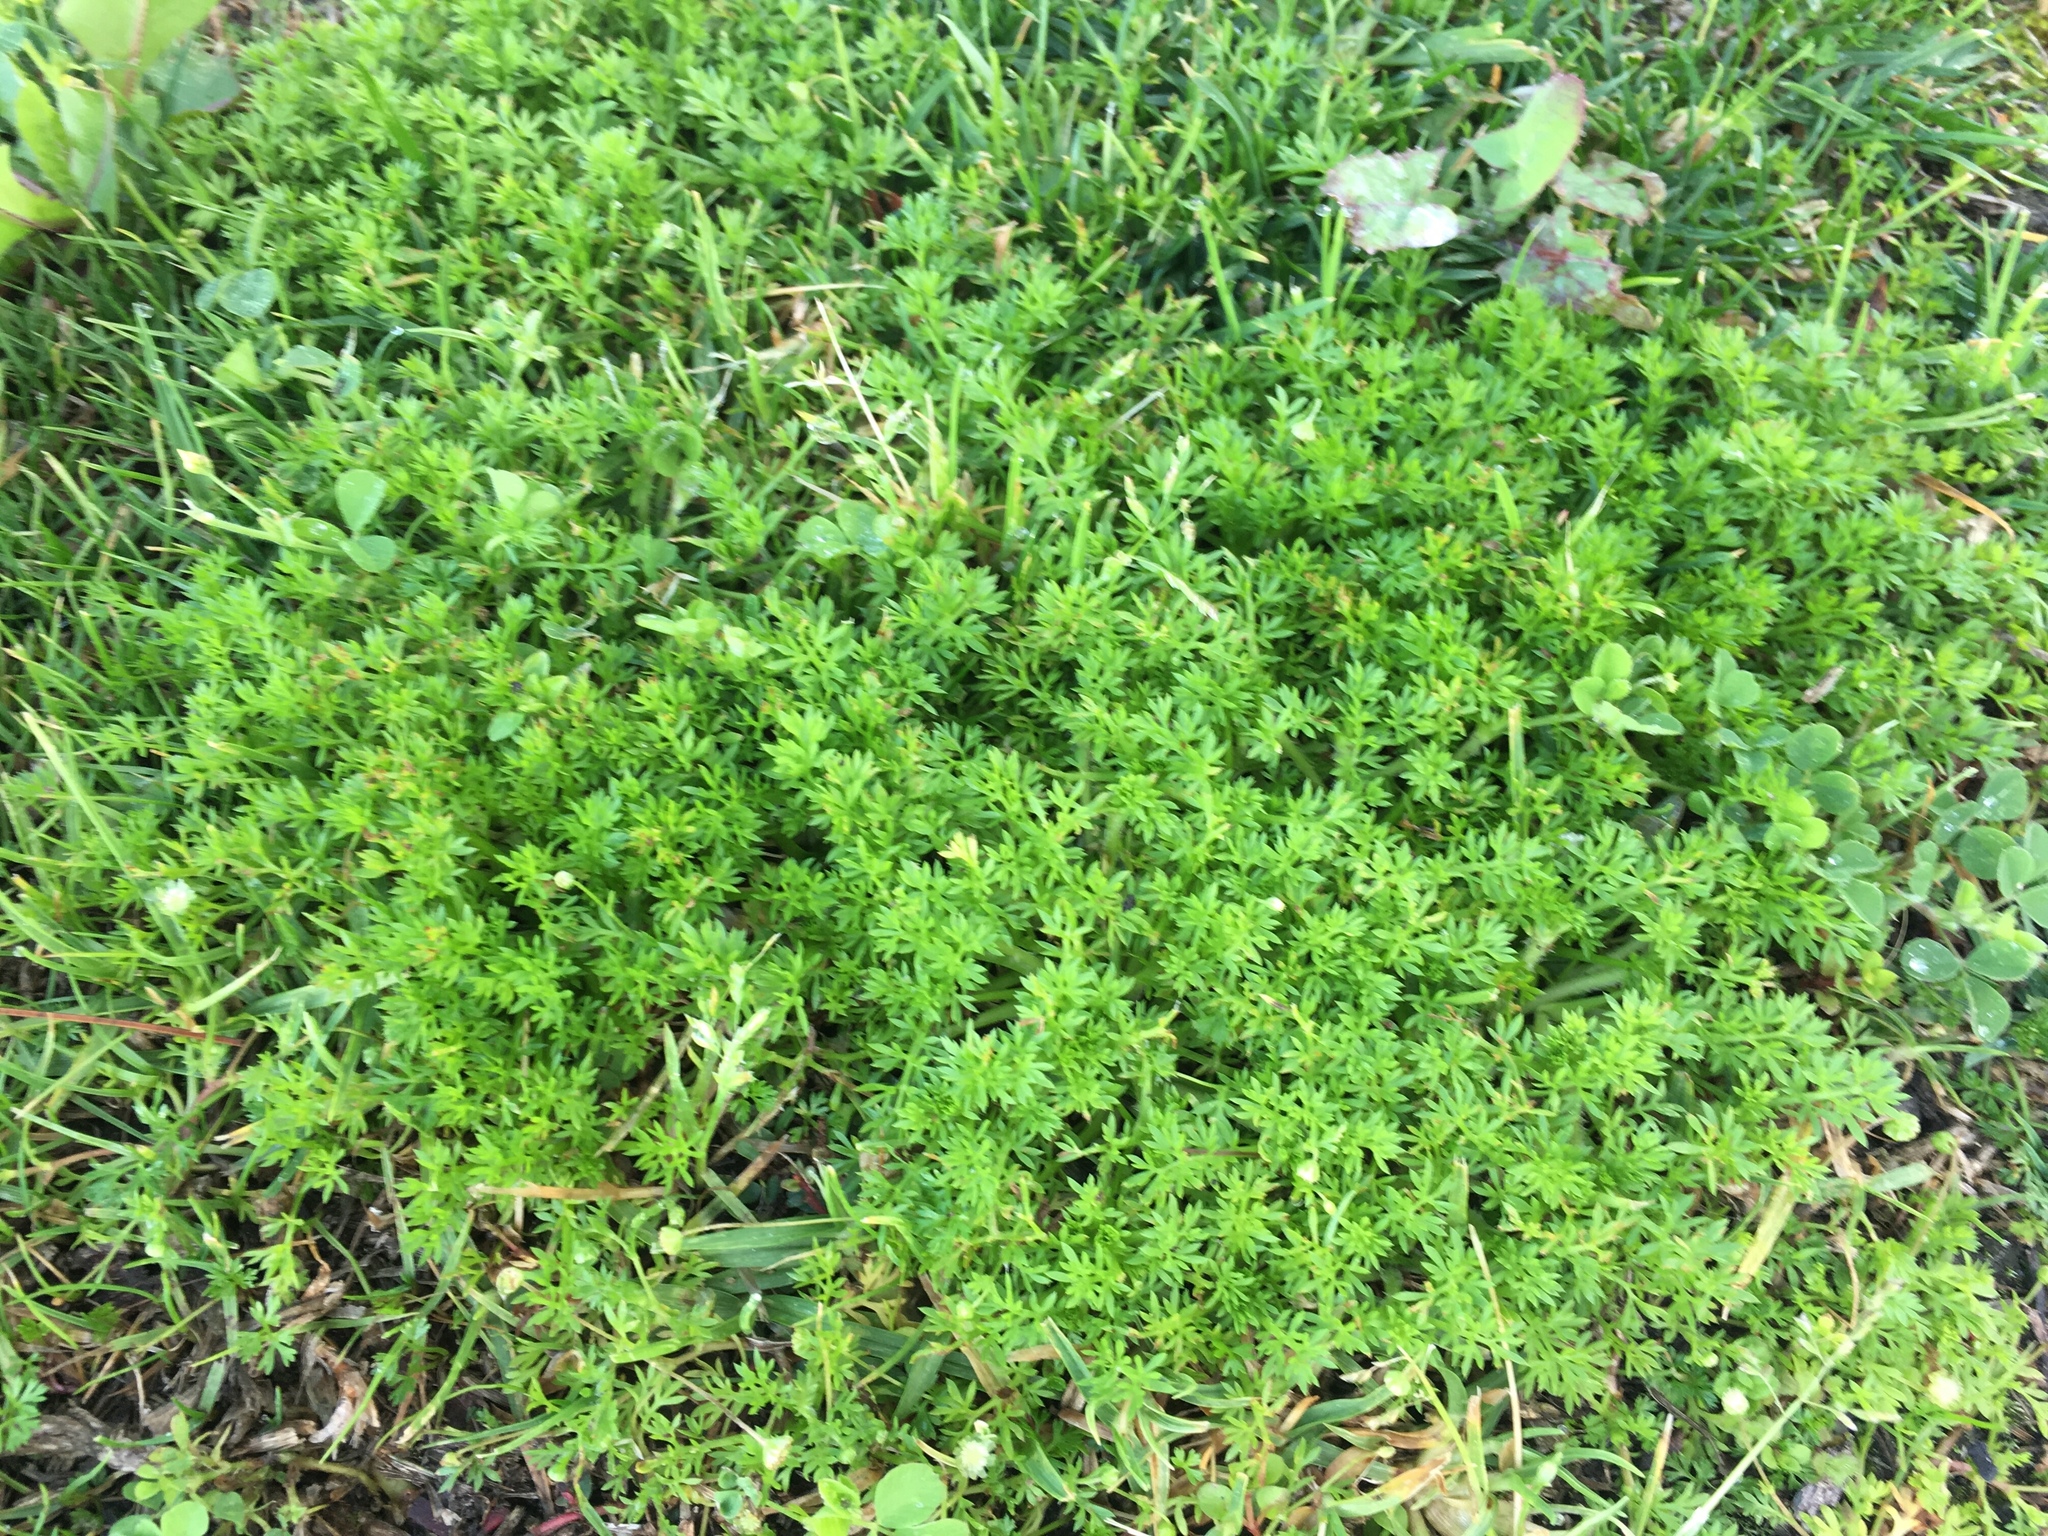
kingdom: Plantae
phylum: Tracheophyta
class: Magnoliopsida
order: Asterales
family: Asteraceae
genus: Cotula
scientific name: Cotula australis
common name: Australian waterbuttons
